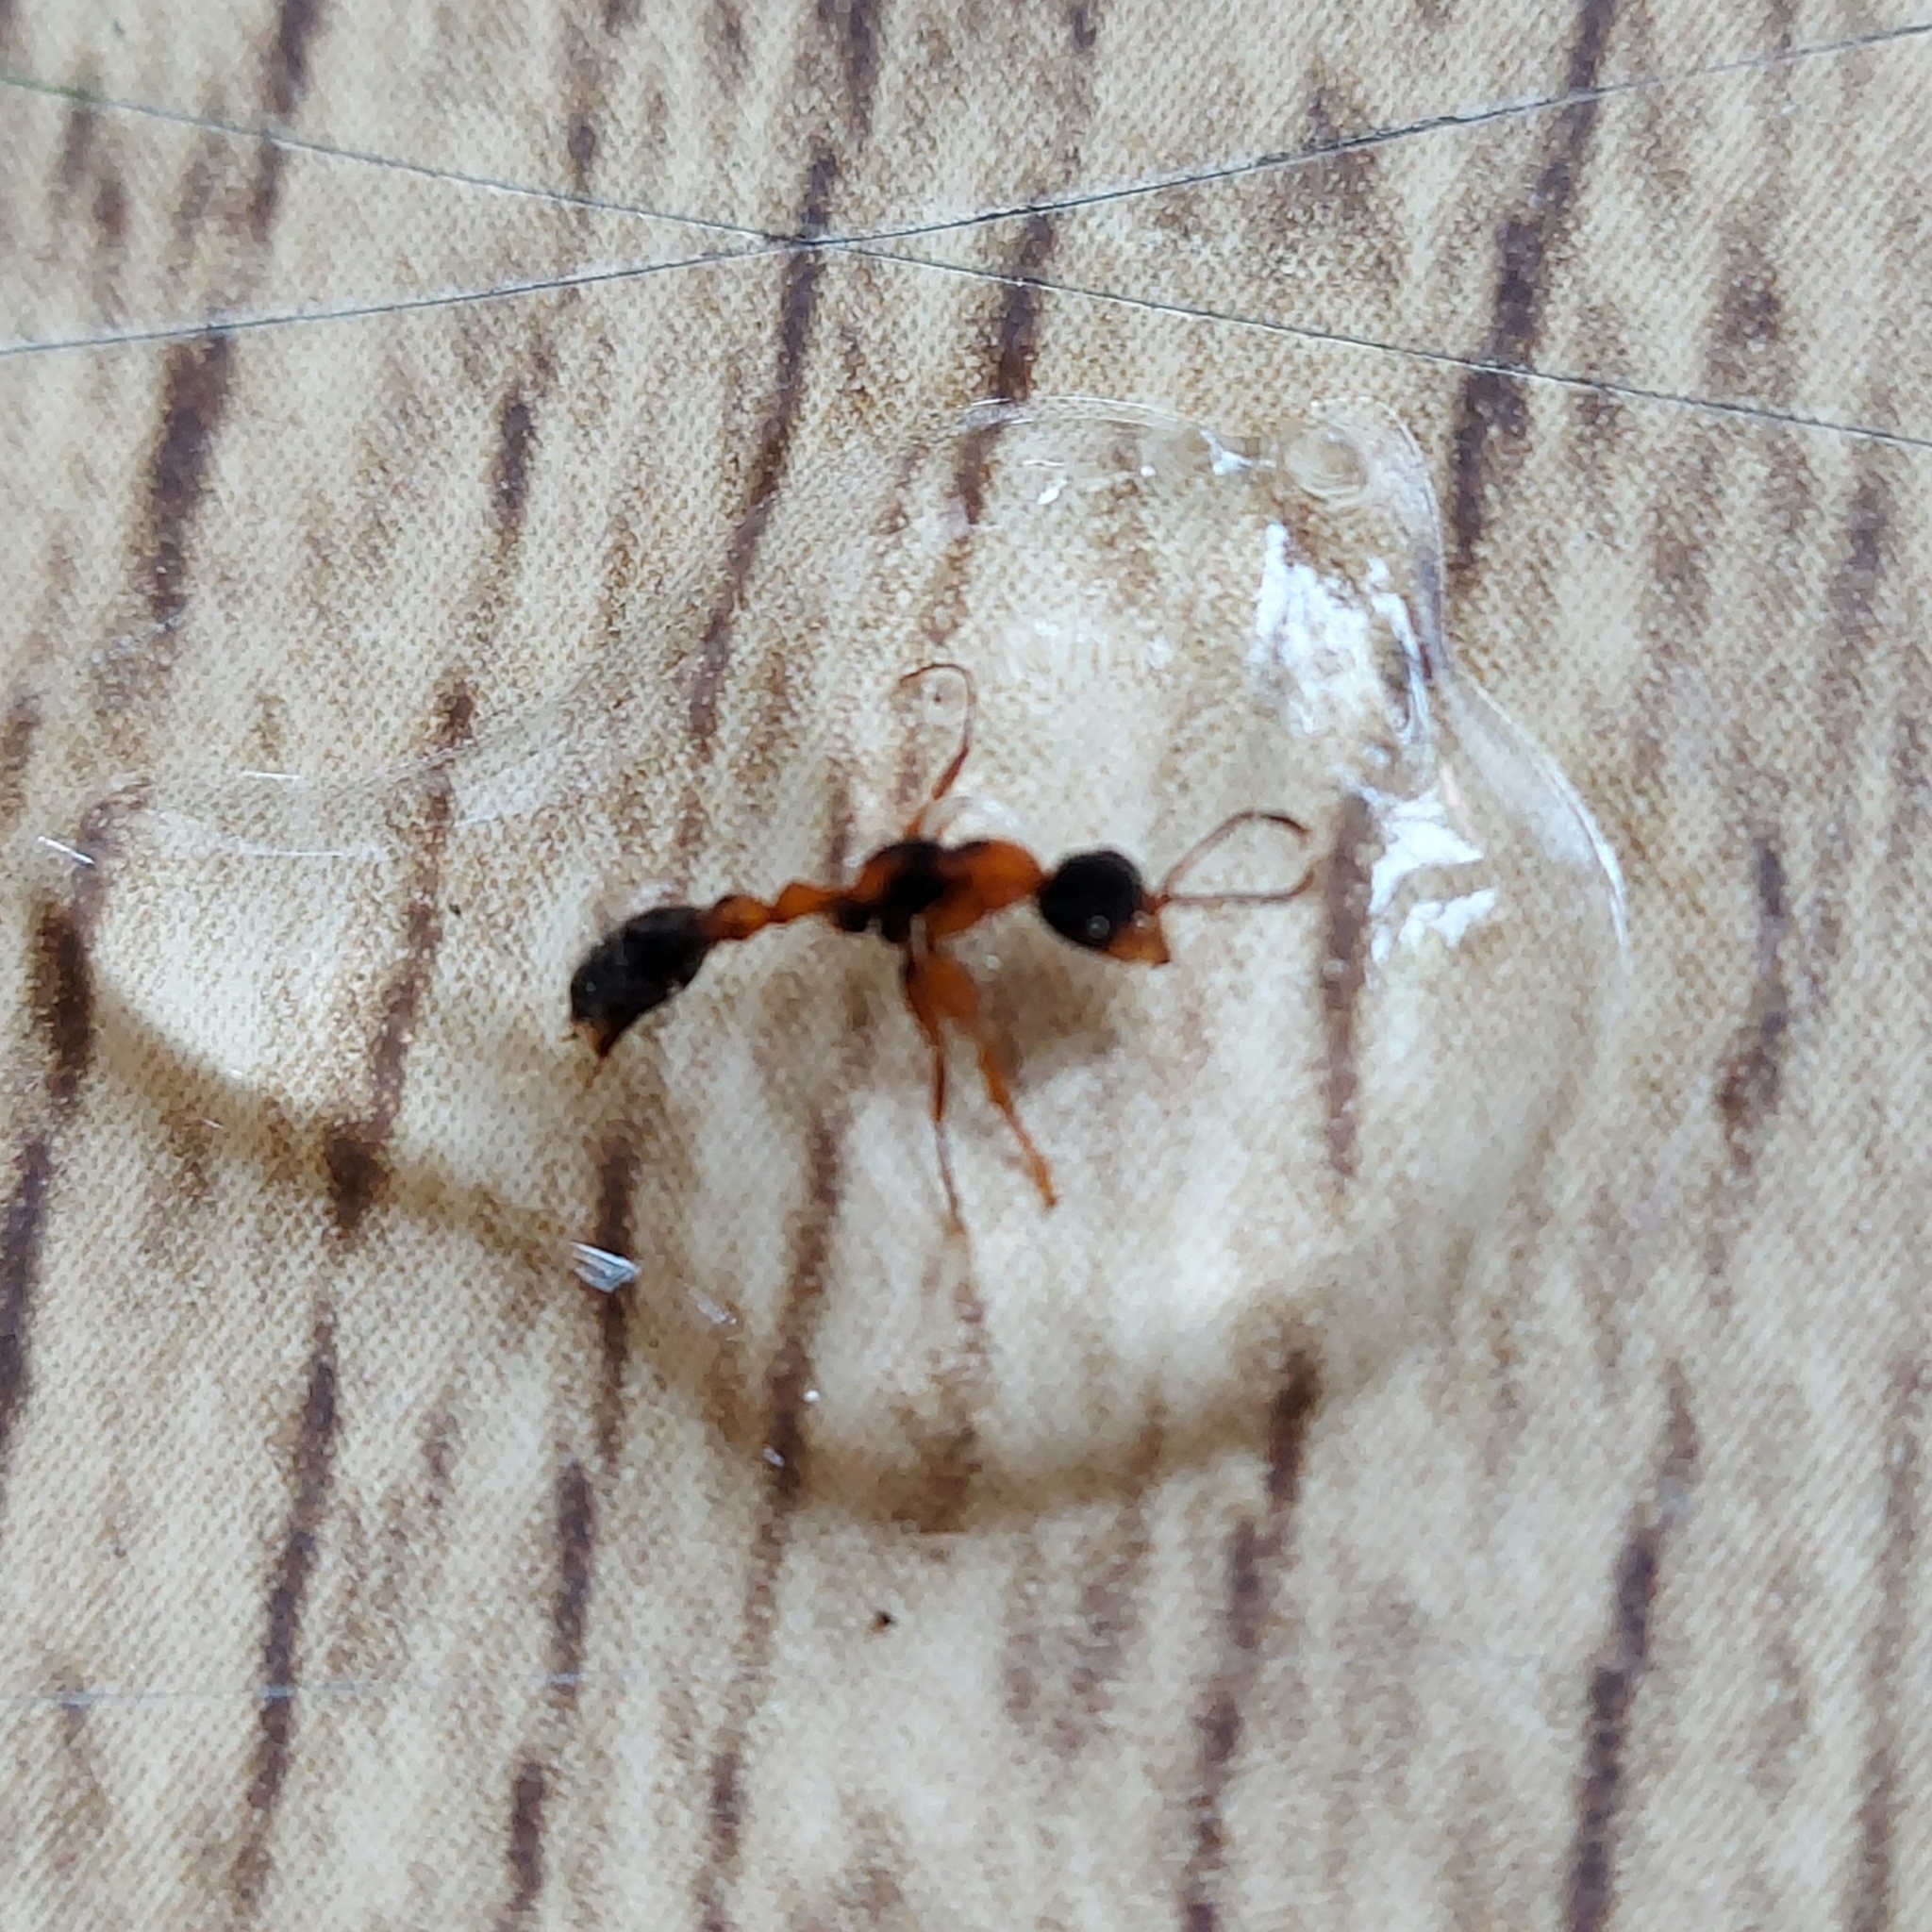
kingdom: Animalia
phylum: Arthropoda
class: Insecta
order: Hymenoptera
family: Formicidae
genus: Pseudomyrmex
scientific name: Pseudomyrmex gracilis
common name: Graceful twig ant
